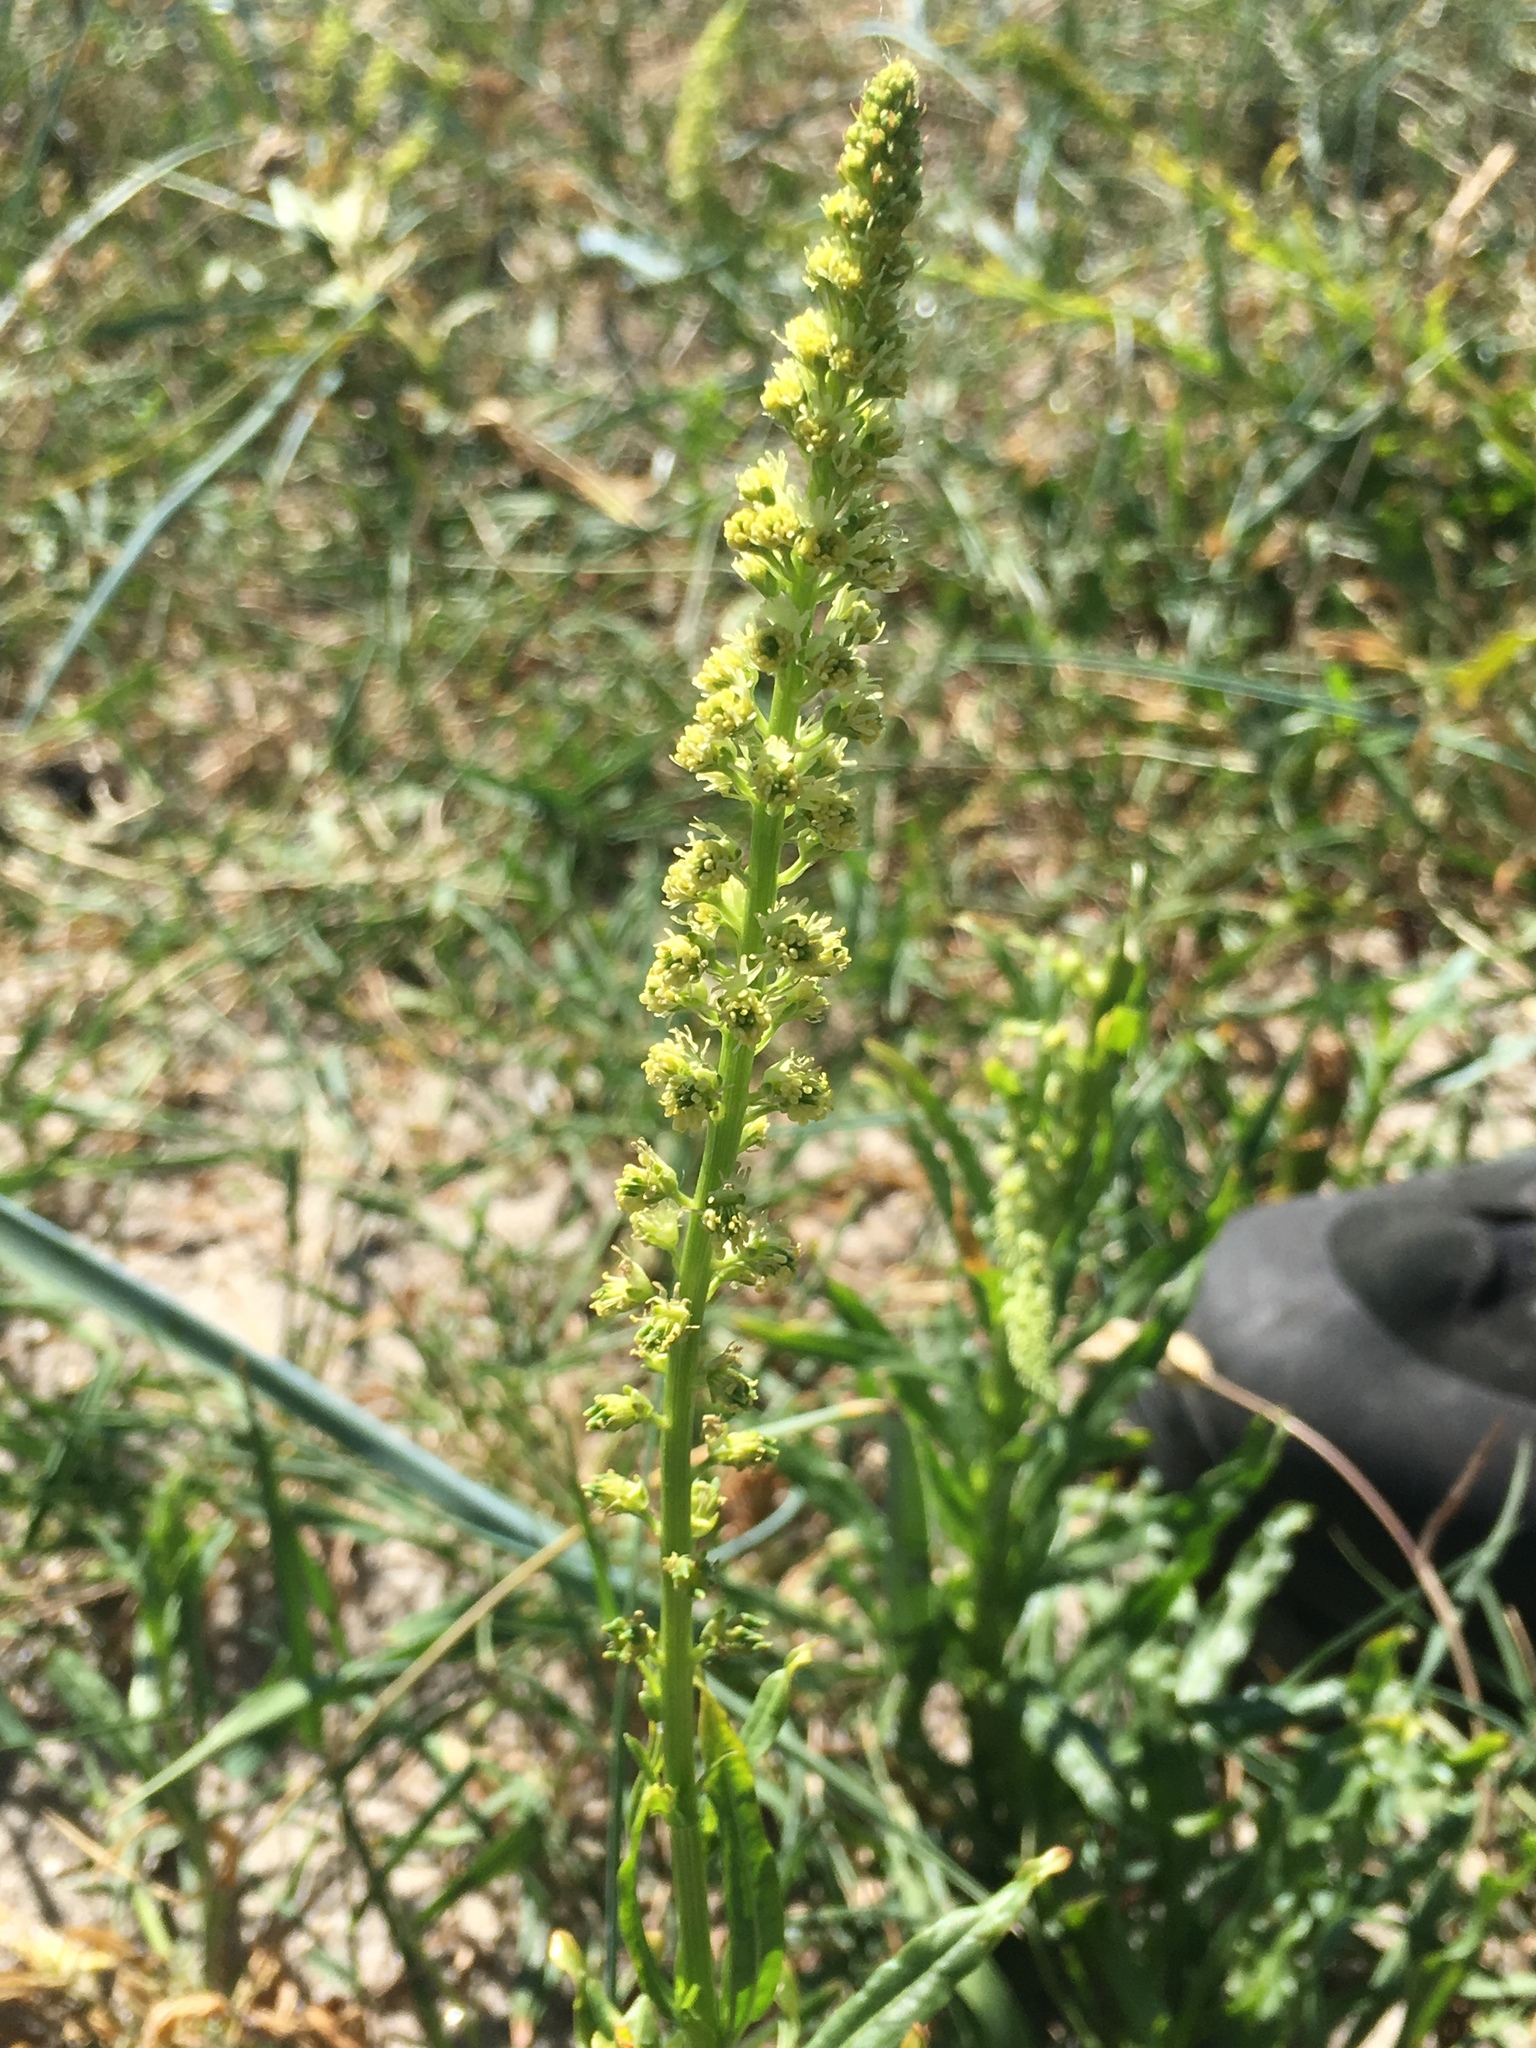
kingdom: Plantae
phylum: Tracheophyta
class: Magnoliopsida
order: Brassicales
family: Resedaceae
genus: Reseda
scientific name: Reseda luteola
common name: Weld
